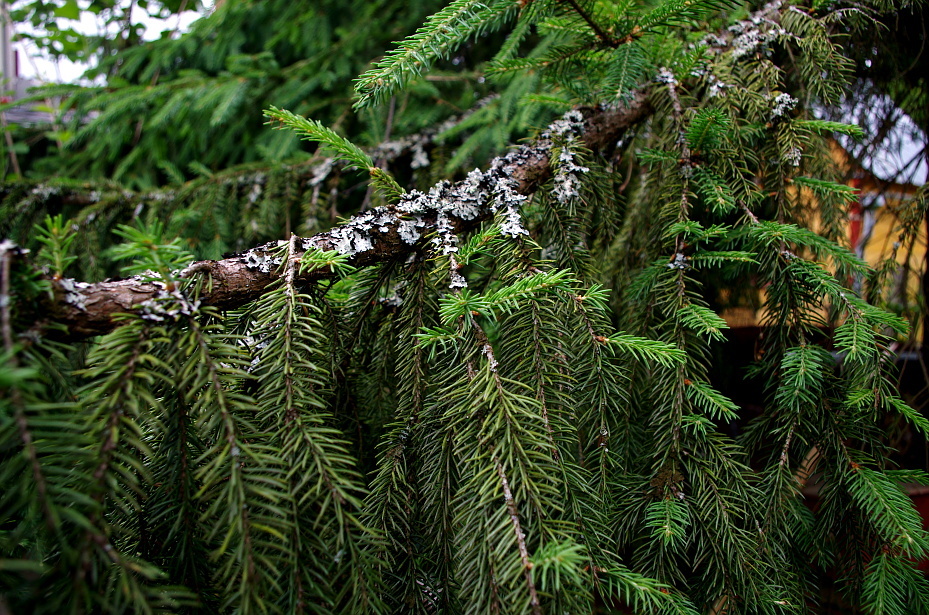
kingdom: Plantae
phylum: Tracheophyta
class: Pinopsida
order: Pinales
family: Pinaceae
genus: Picea
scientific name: Picea abies
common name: Norway spruce
